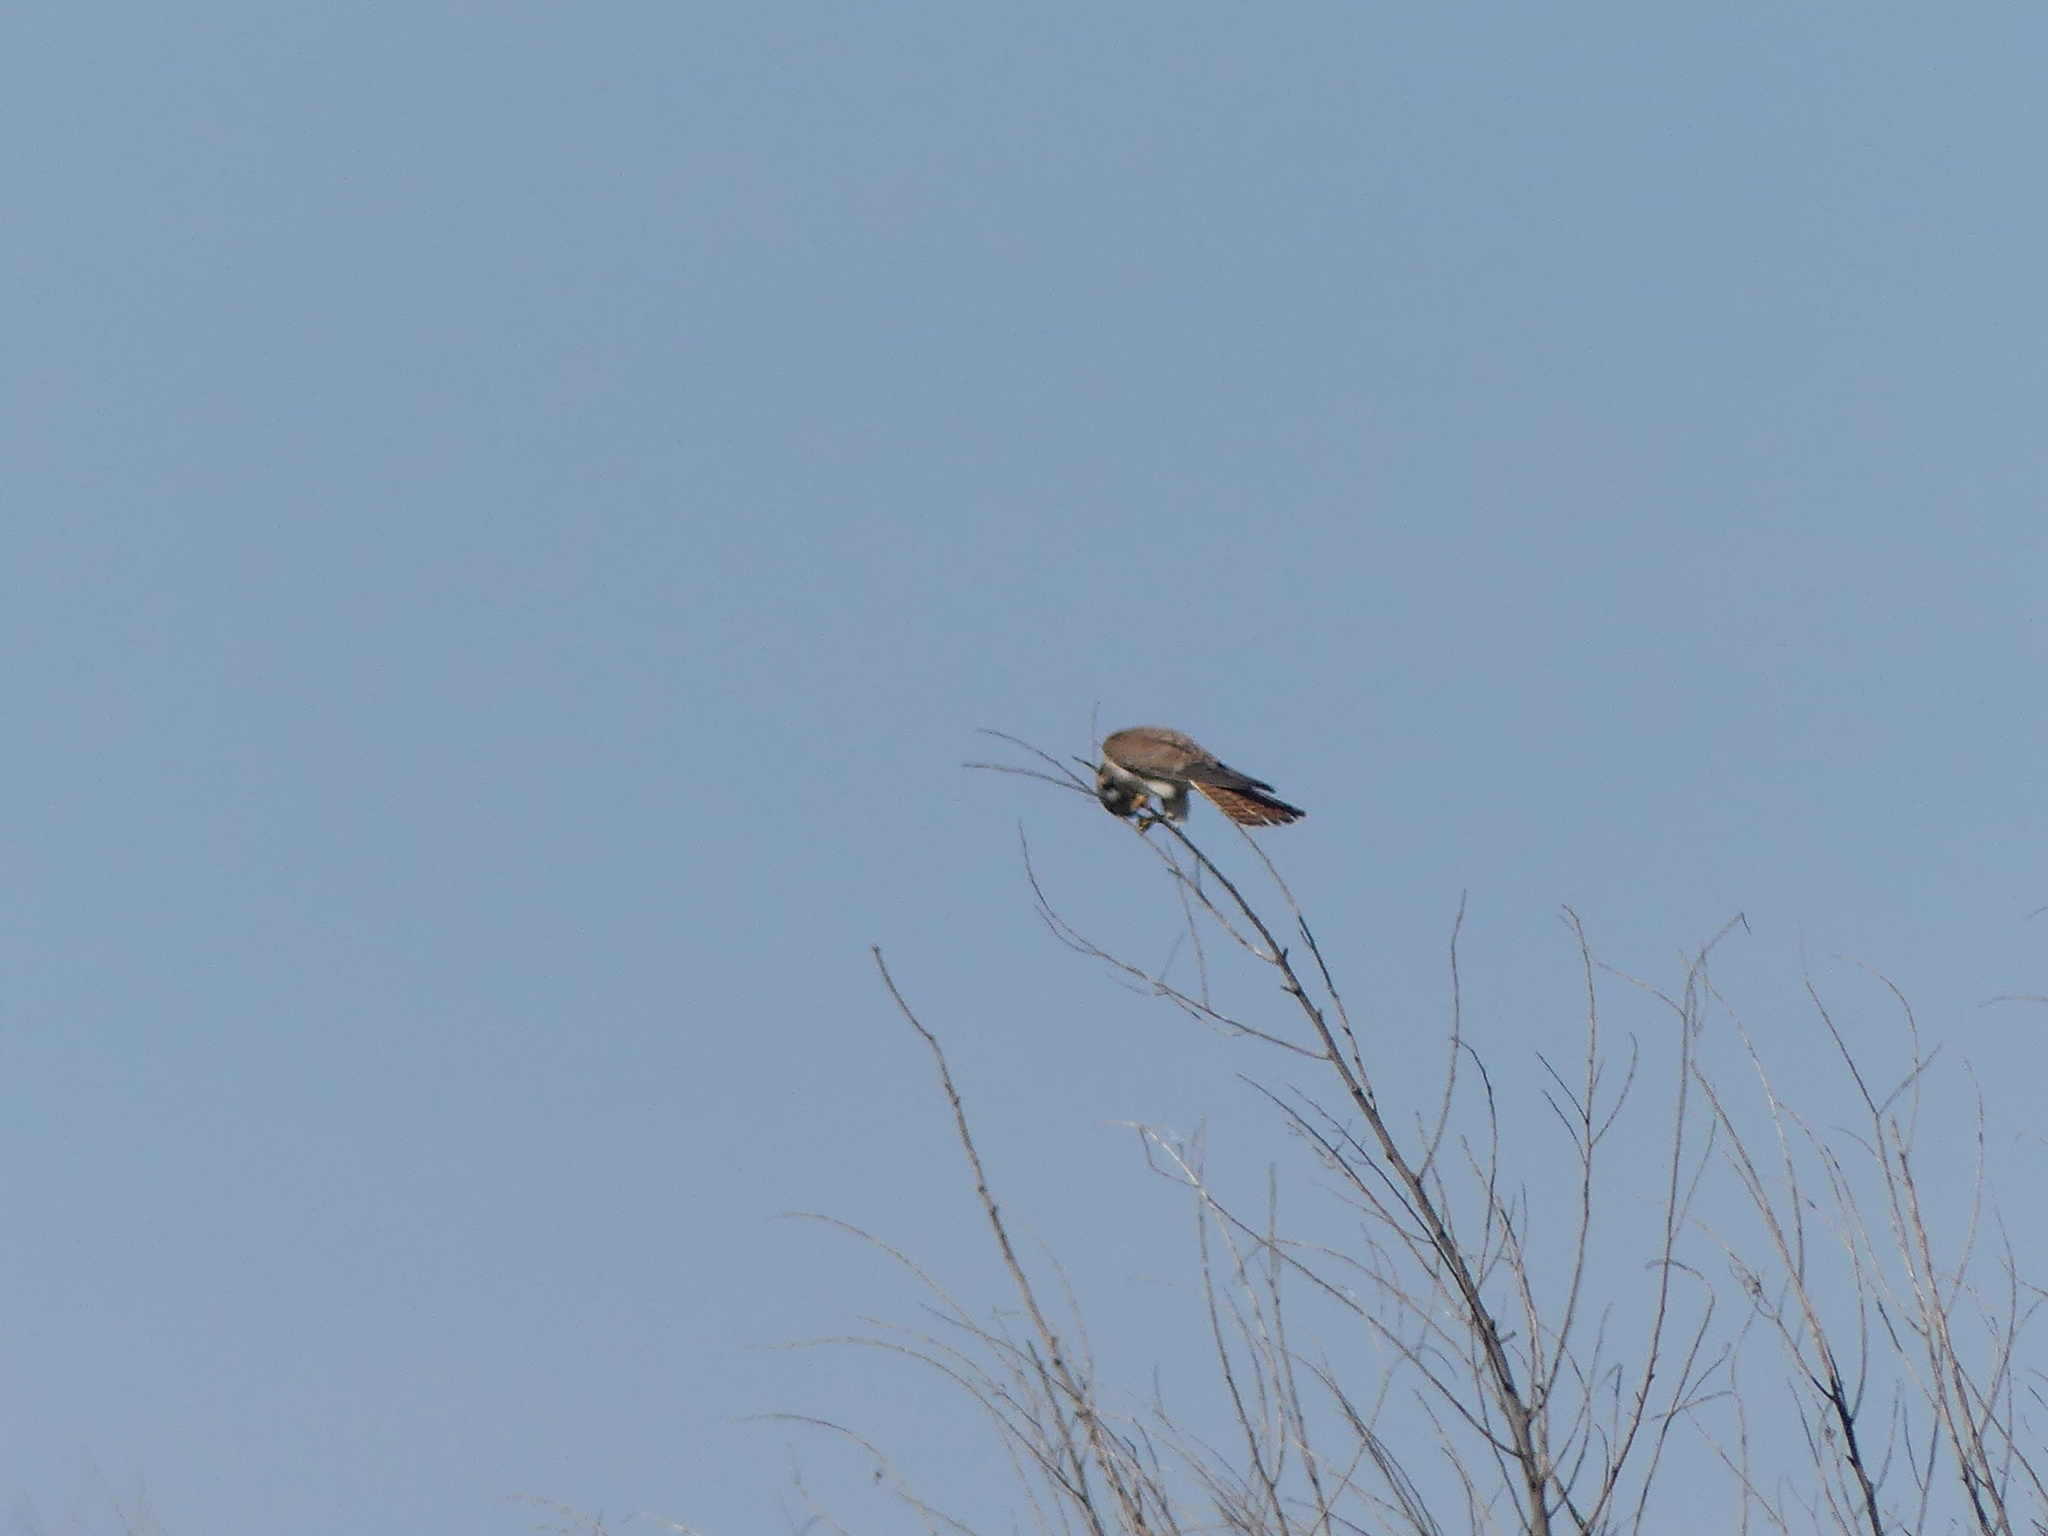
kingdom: Animalia
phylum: Chordata
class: Aves
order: Falconiformes
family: Falconidae
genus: Falco
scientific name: Falco sparverius
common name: American kestrel
